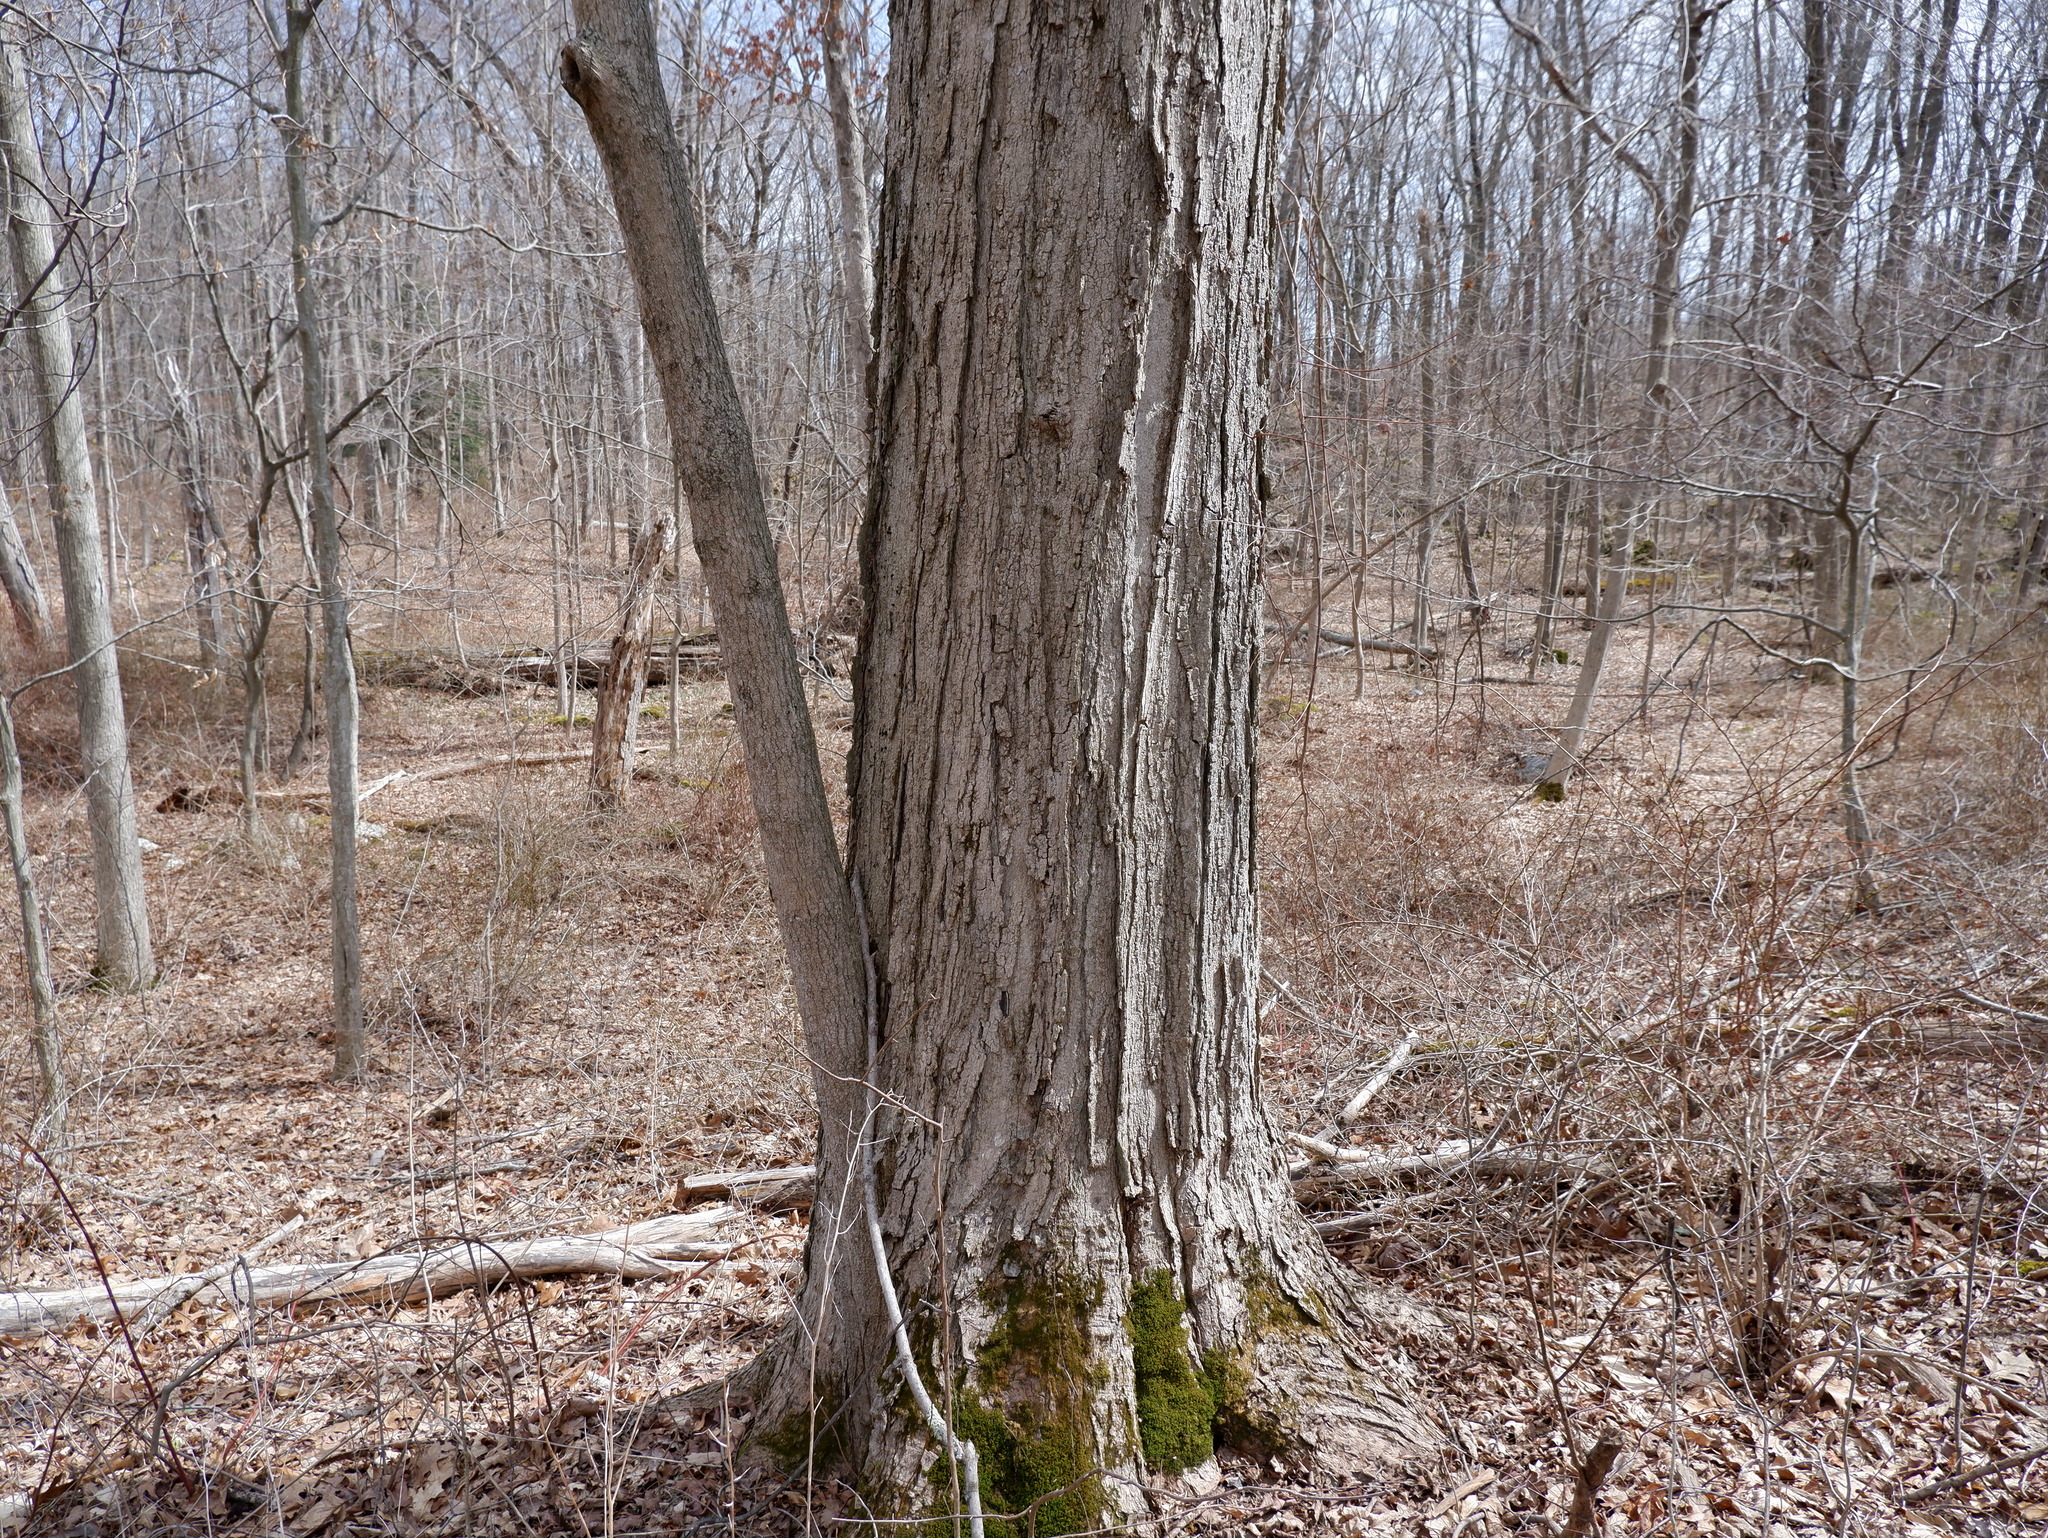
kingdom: Plantae
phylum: Tracheophyta
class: Magnoliopsida
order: Sapindales
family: Sapindaceae
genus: Acer
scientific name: Acer saccharum
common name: Sugar maple
